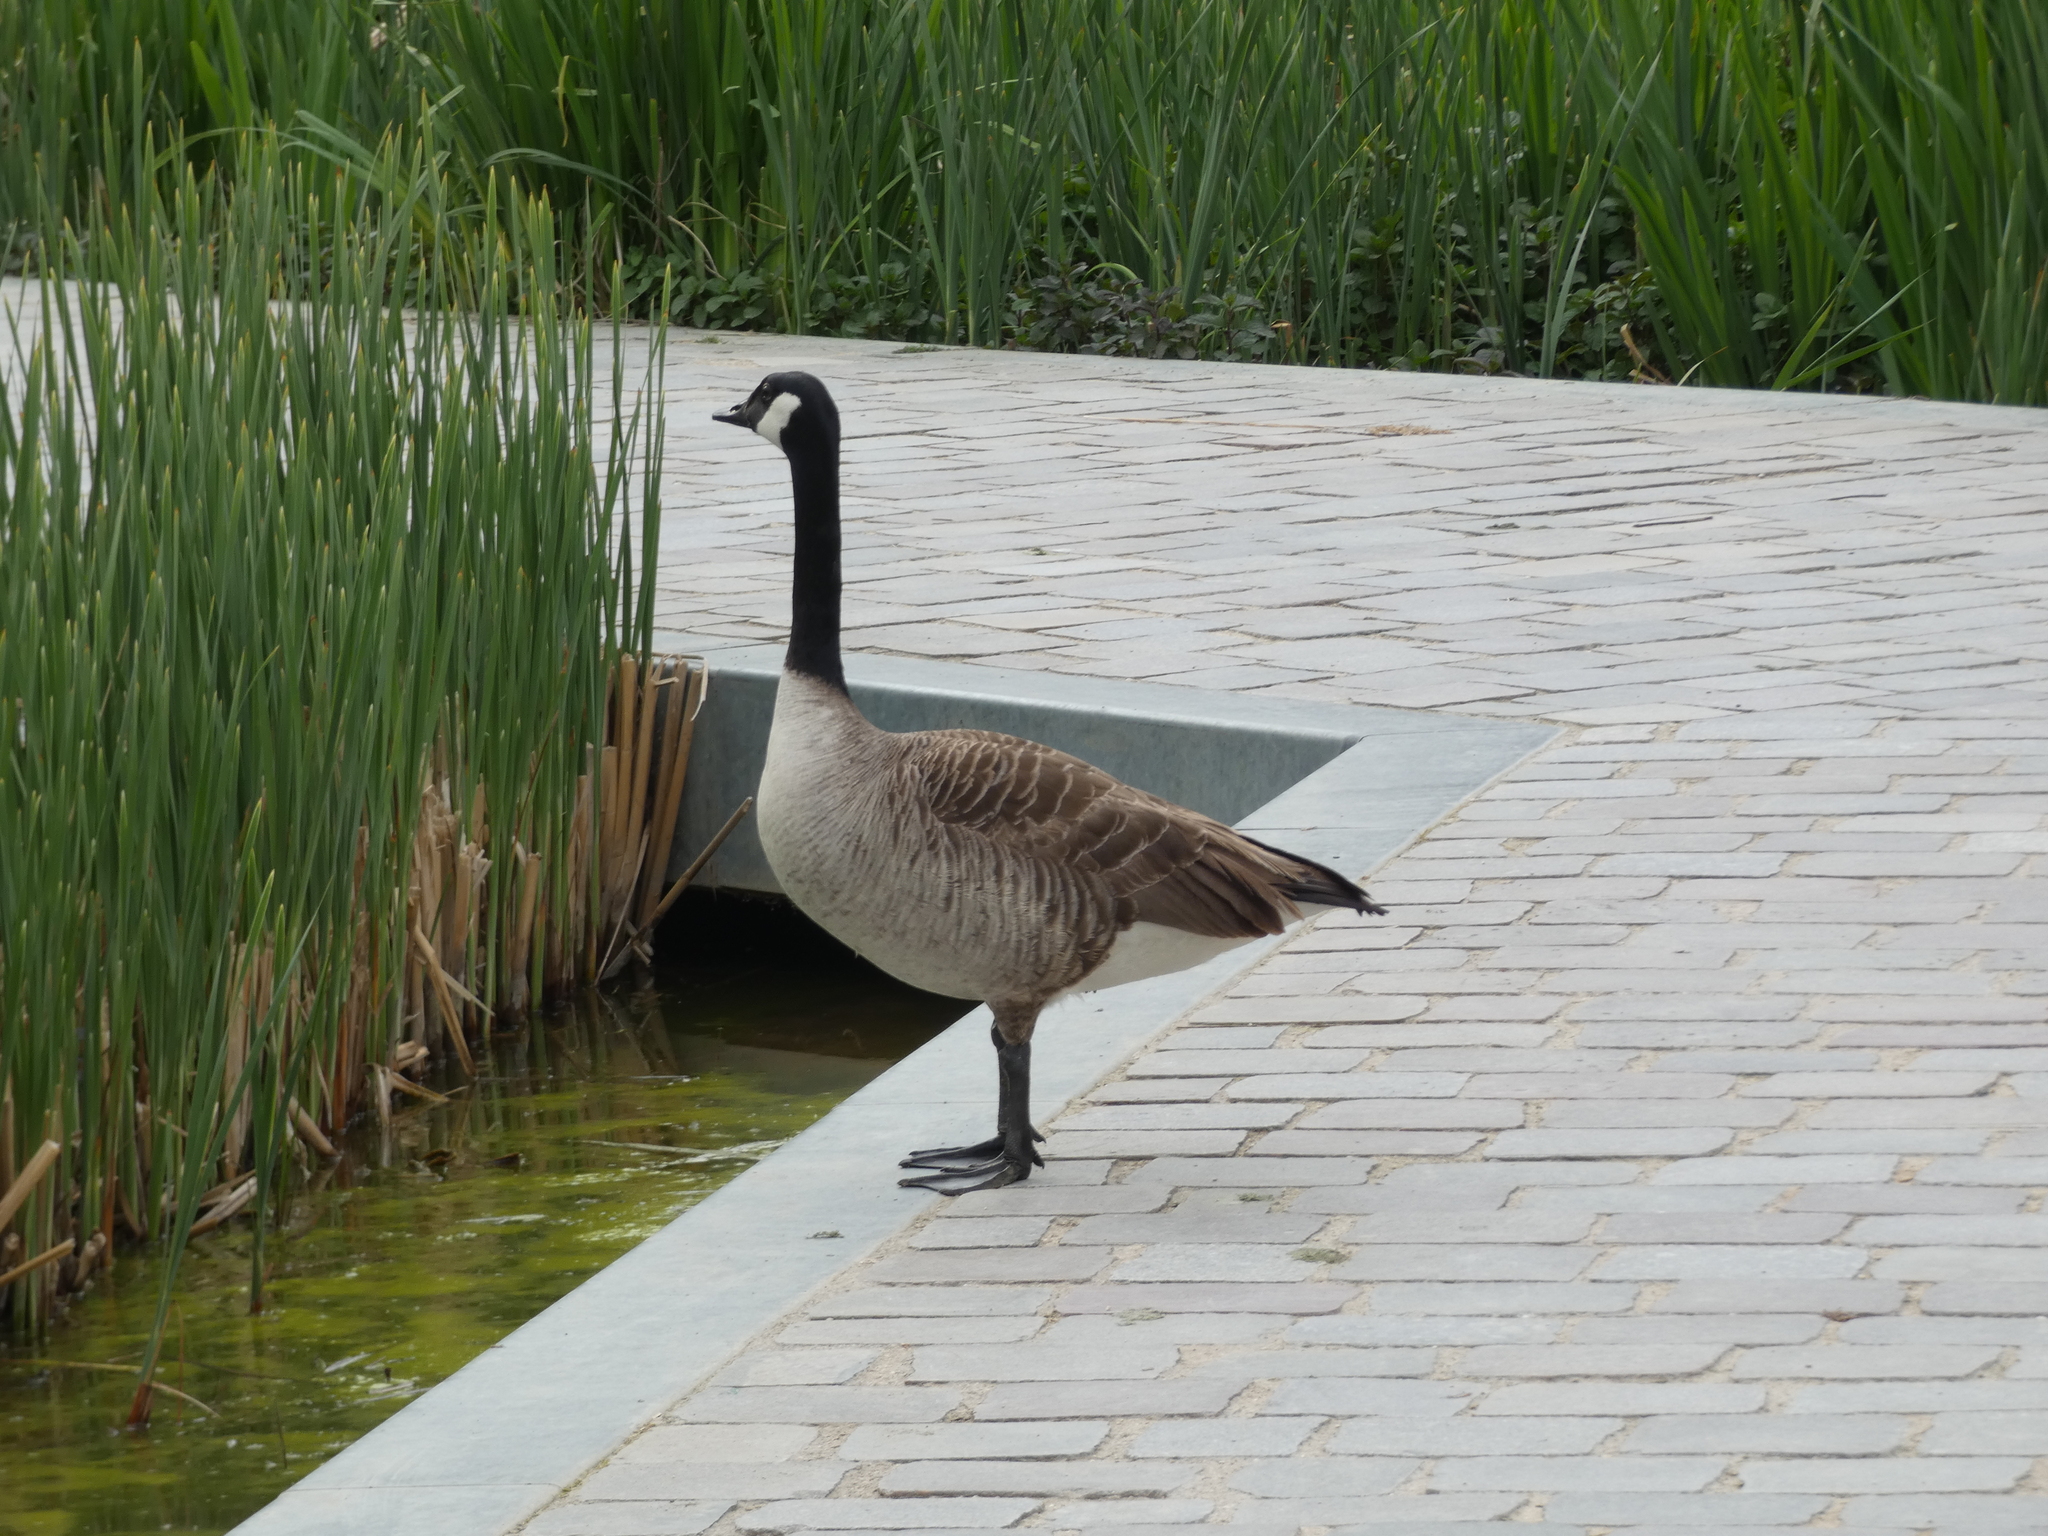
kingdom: Animalia
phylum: Chordata
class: Aves
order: Anseriformes
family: Anatidae
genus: Branta
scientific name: Branta canadensis
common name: Canada goose
